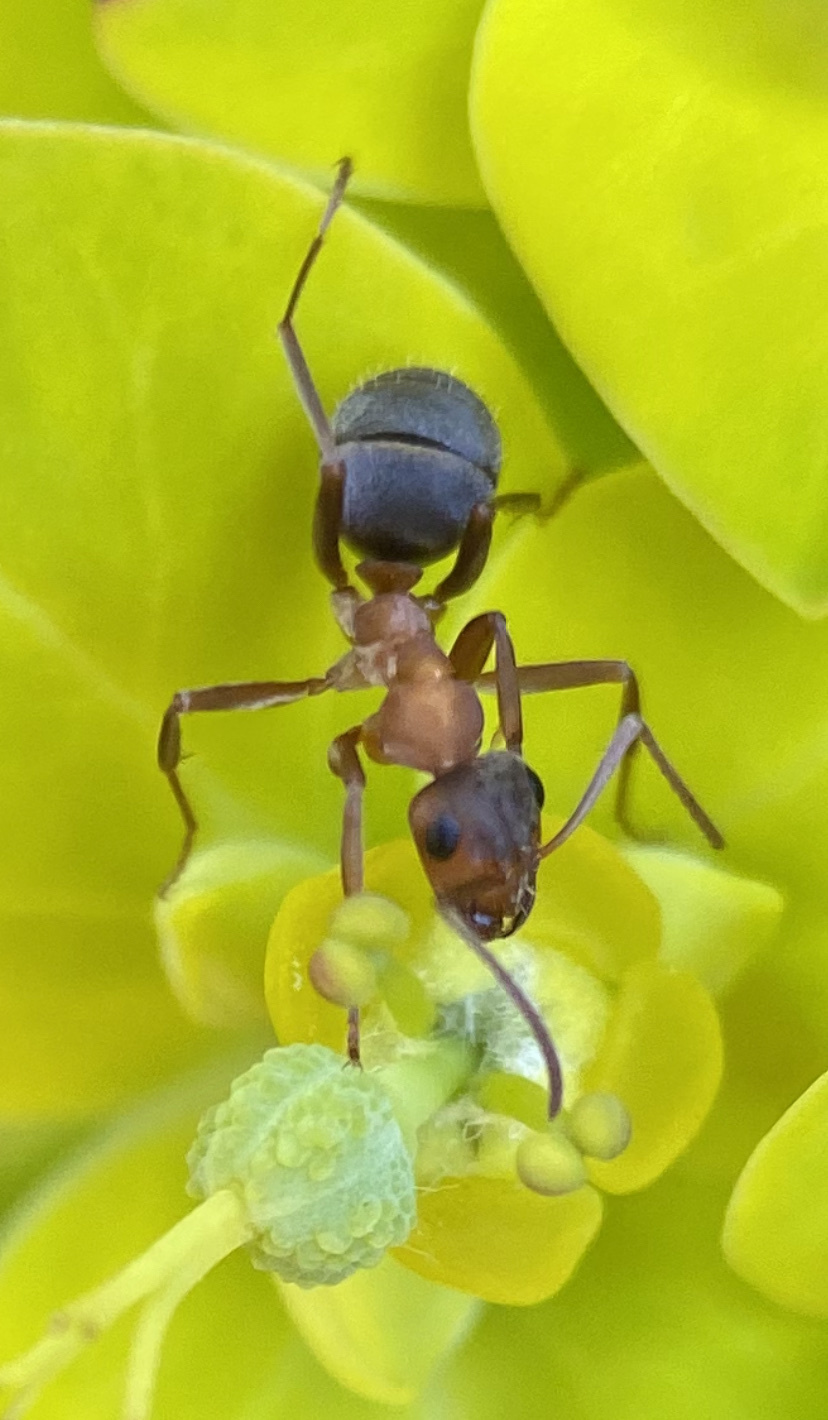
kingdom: Animalia
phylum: Arthropoda
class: Insecta
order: Hymenoptera
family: Formicidae
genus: Formica
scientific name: Formica moki
